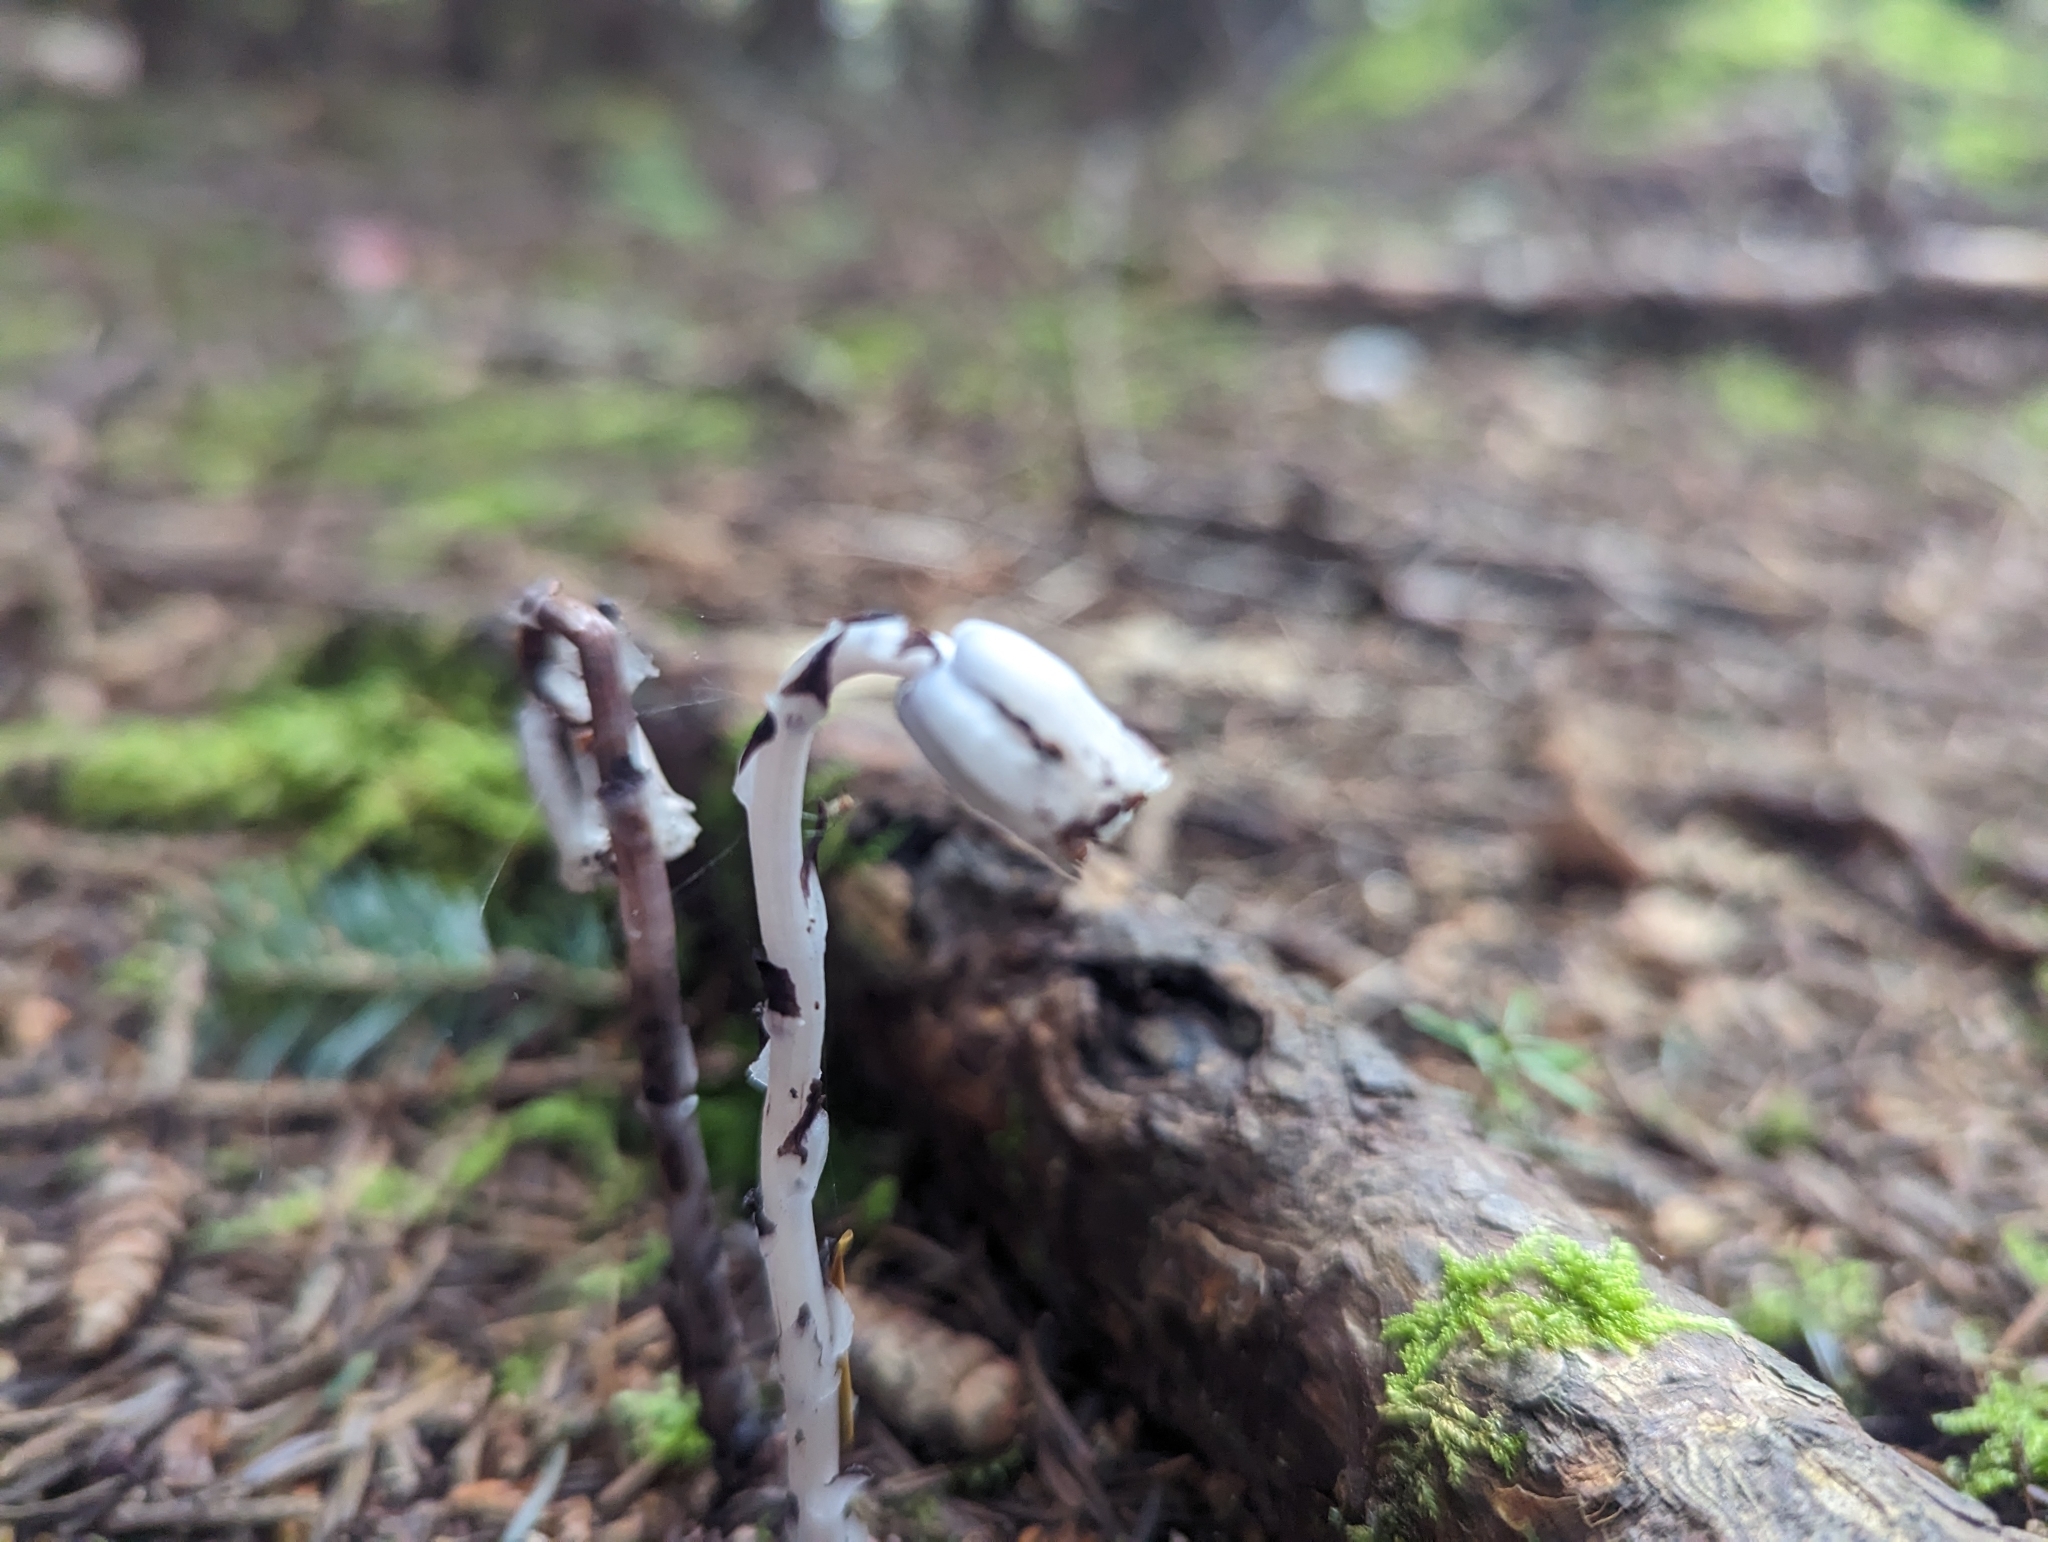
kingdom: Plantae
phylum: Tracheophyta
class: Magnoliopsida
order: Ericales
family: Ericaceae
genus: Monotropa
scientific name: Monotropa uniflora
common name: Convulsion root
